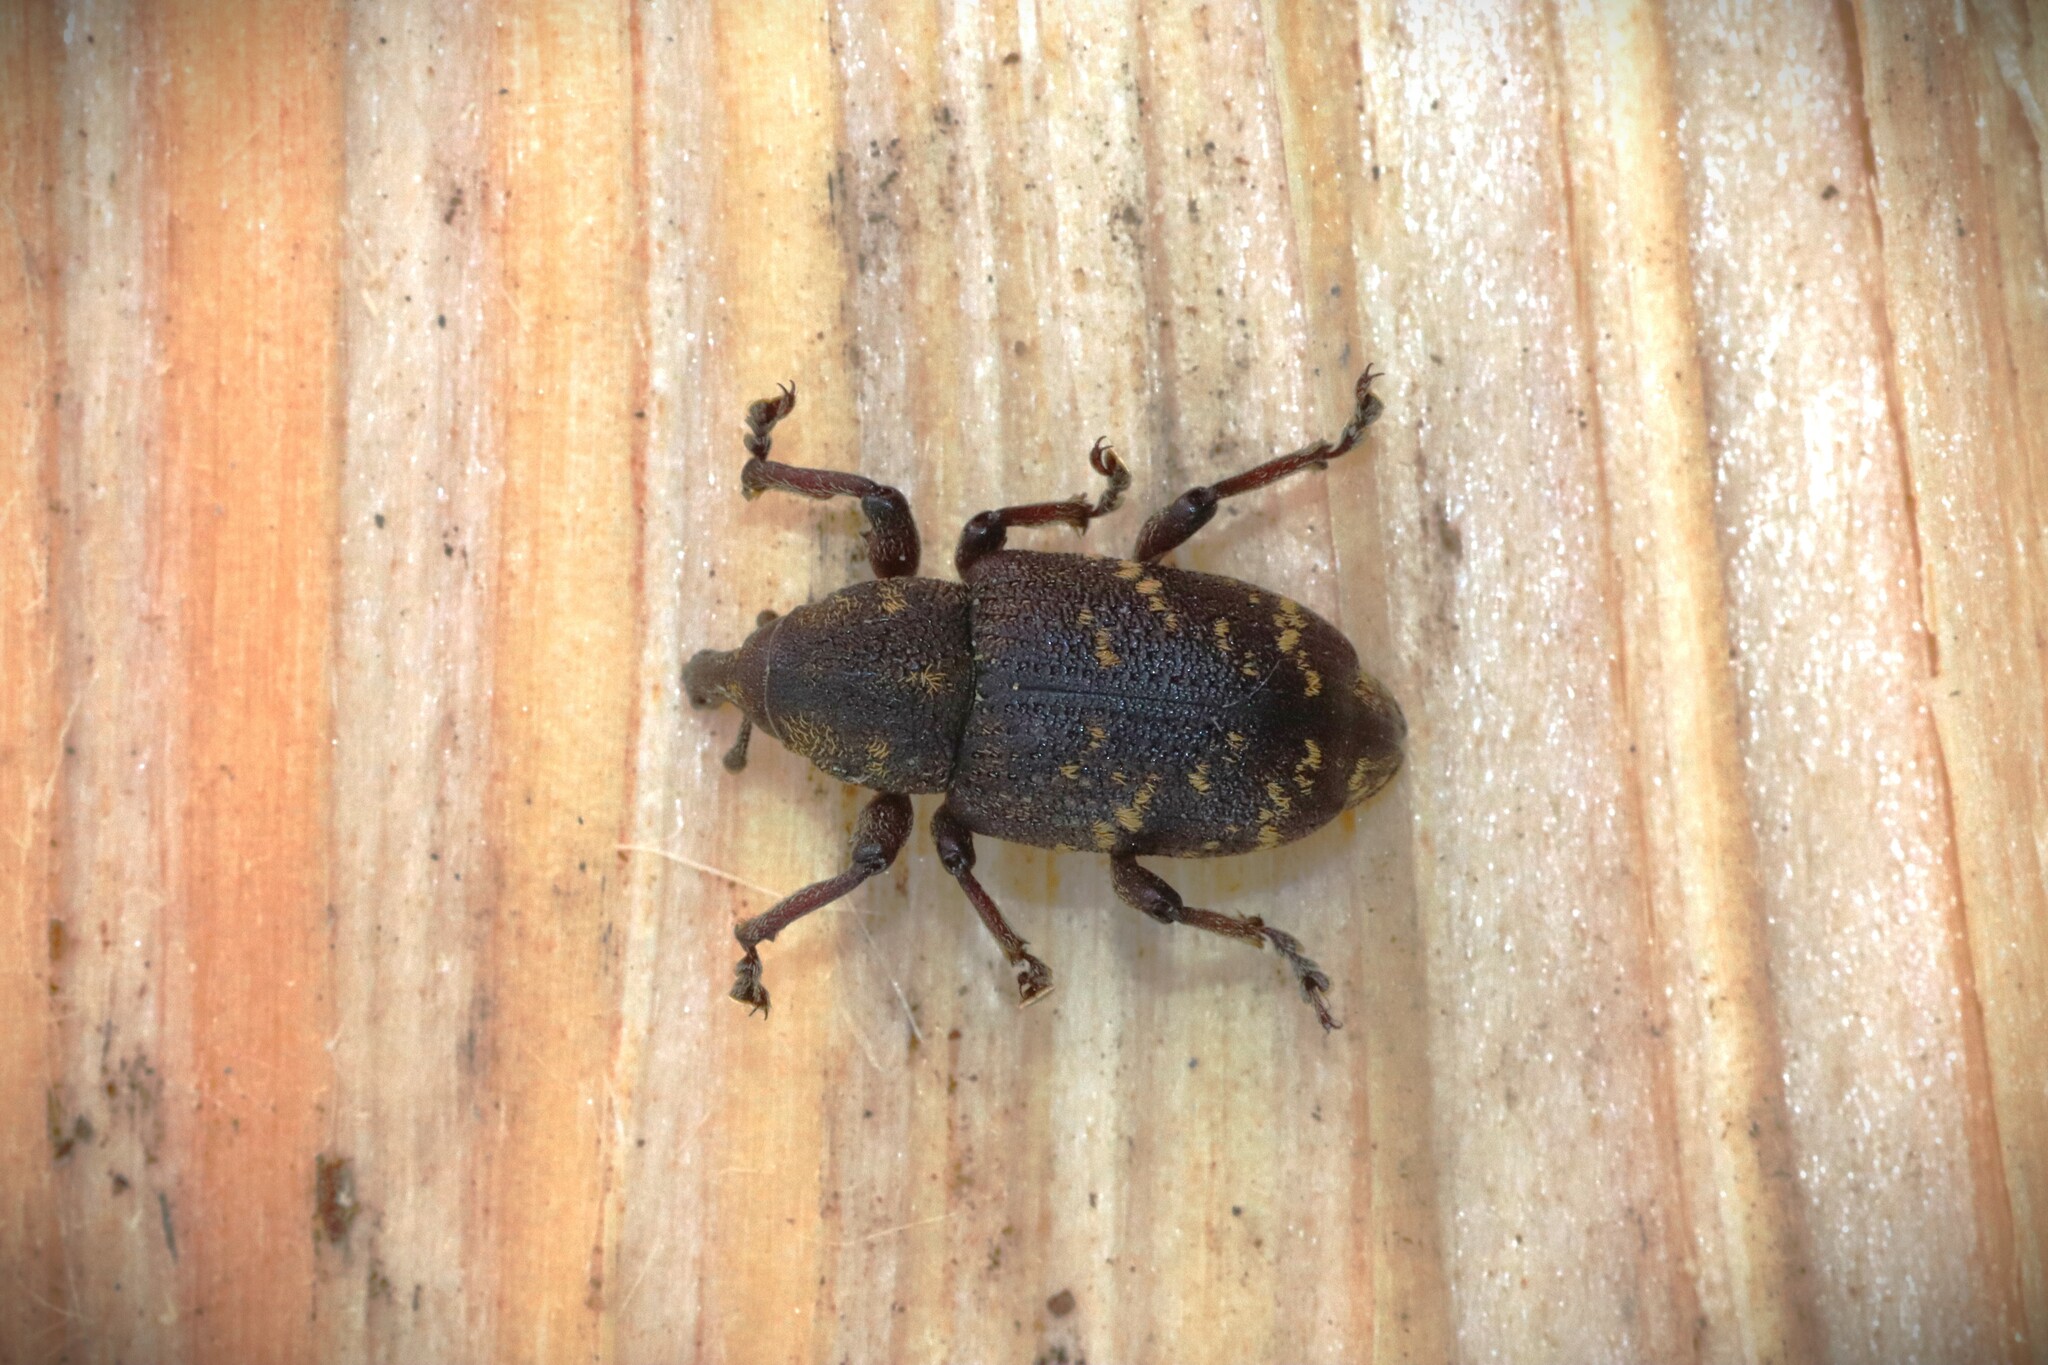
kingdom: Animalia
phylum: Arthropoda
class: Insecta
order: Coleoptera
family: Curculionidae
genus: Hylobius
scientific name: Hylobius abietis
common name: Large pine weevil
